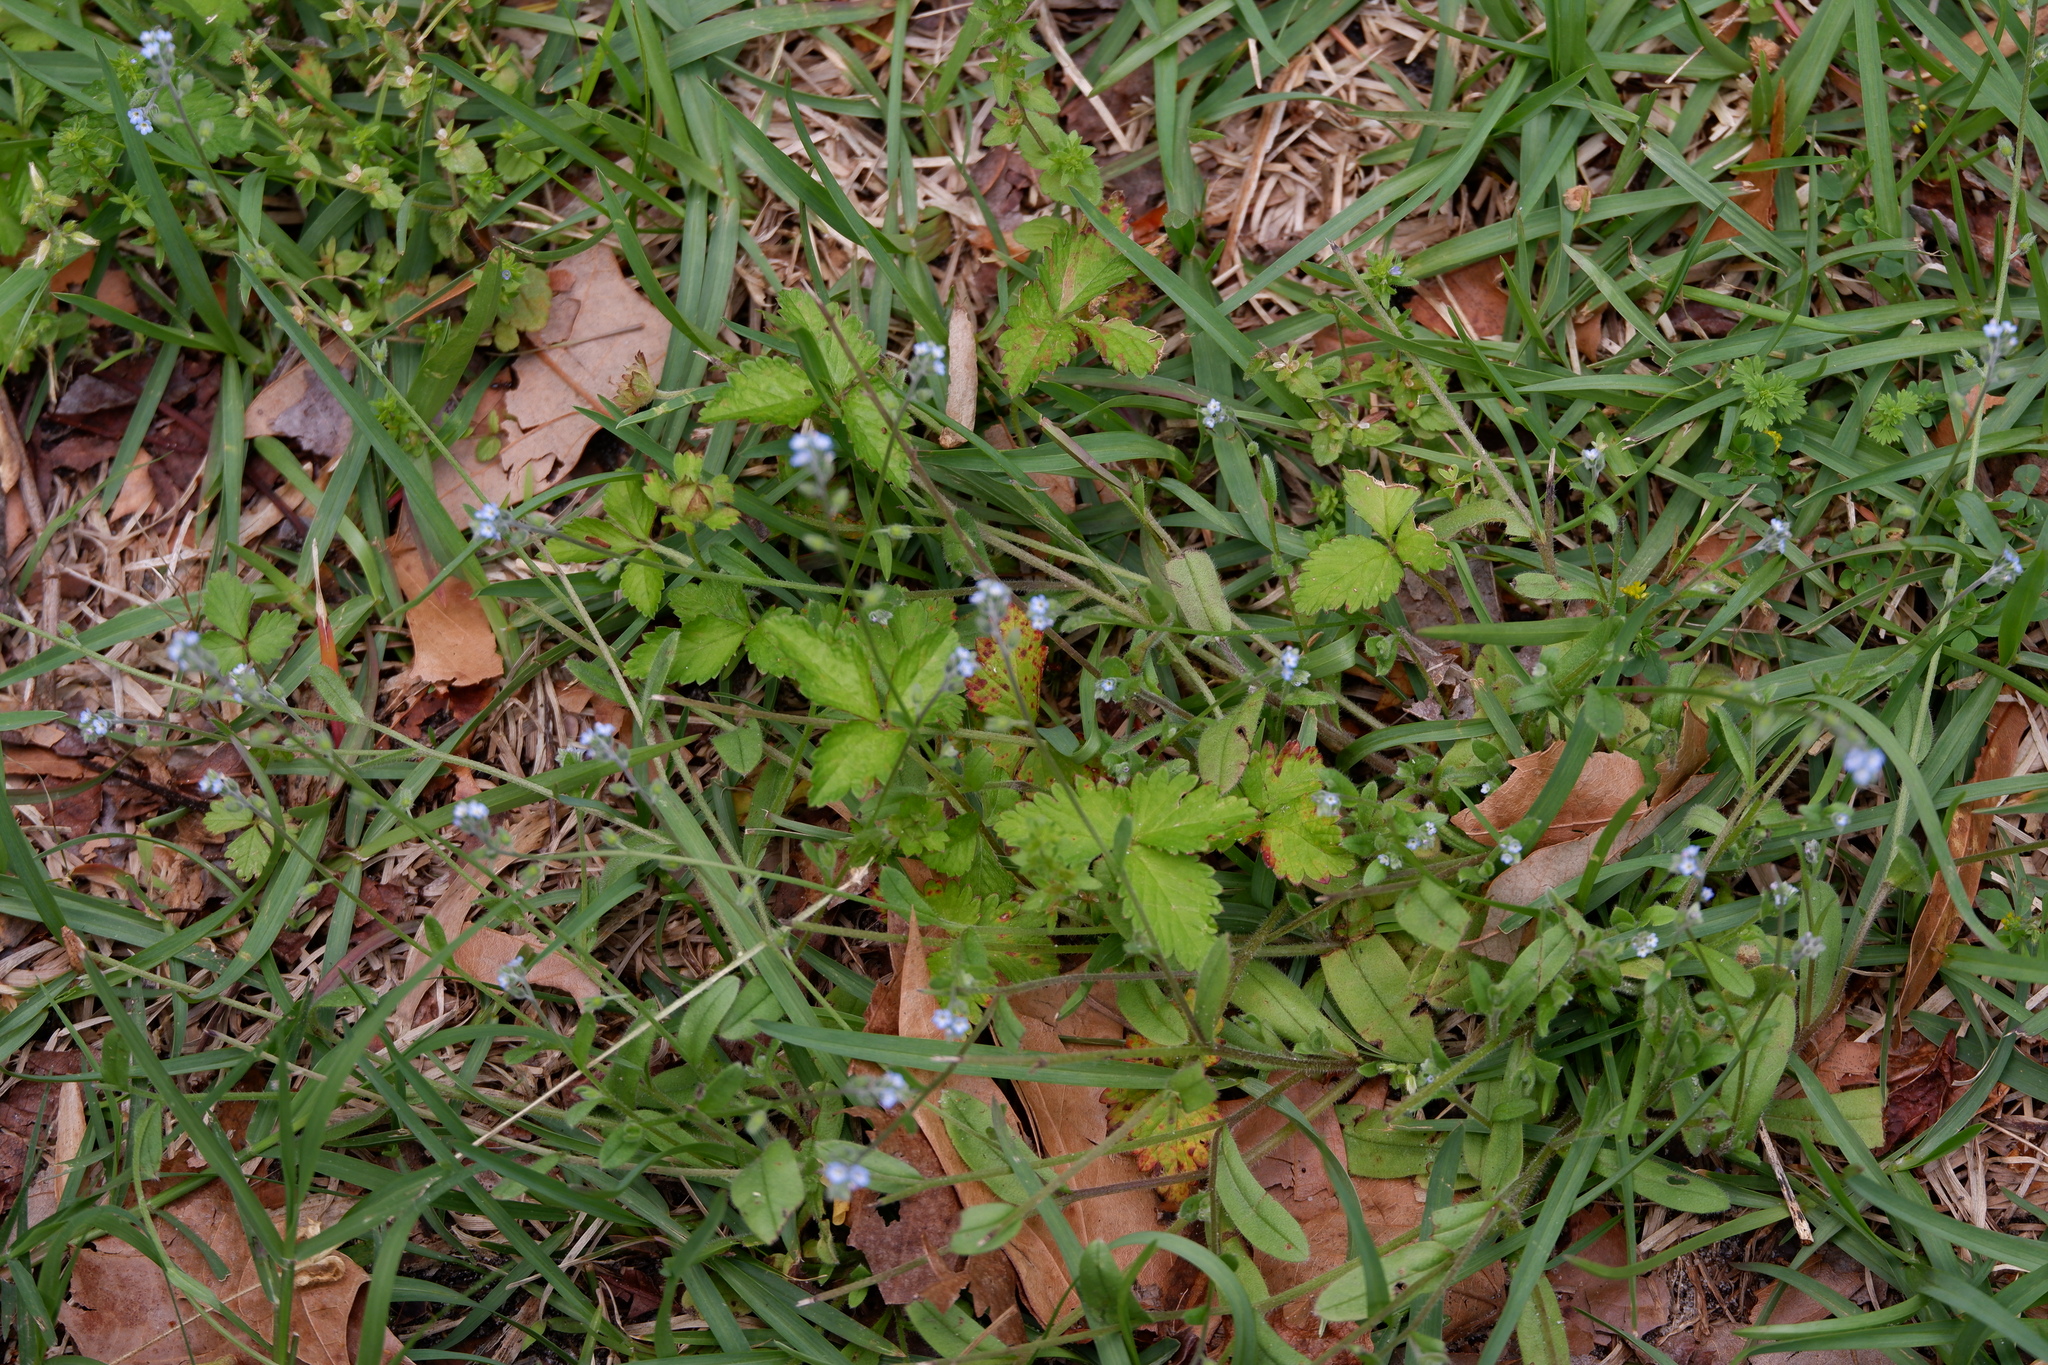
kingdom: Plantae
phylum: Tracheophyta
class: Magnoliopsida
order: Rosales
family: Rosaceae
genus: Potentilla
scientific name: Potentilla indica
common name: Yellow-flowered strawberry
